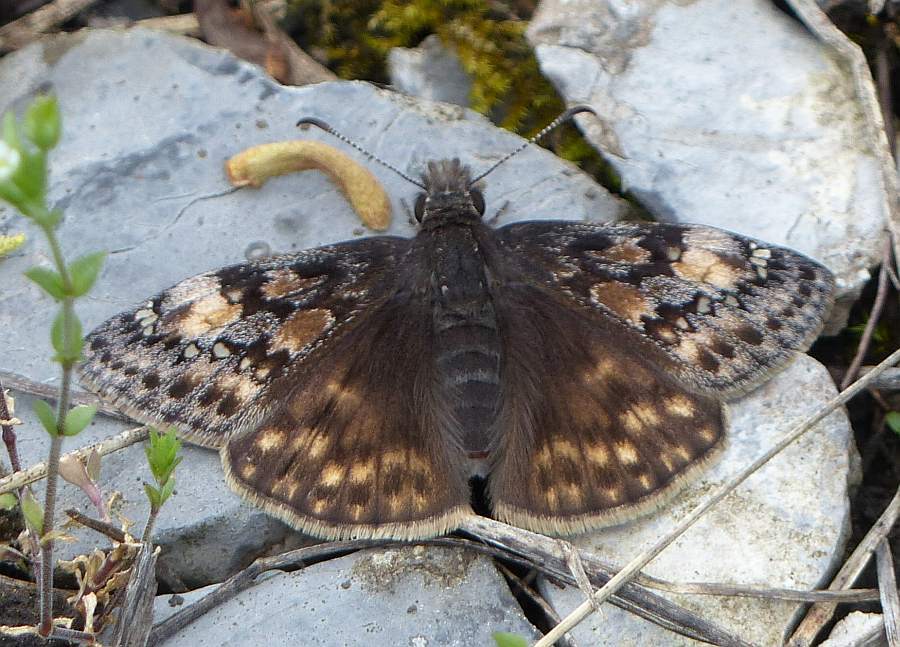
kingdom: Animalia
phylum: Arthropoda
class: Insecta
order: Lepidoptera
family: Hesperiidae
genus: Erynnis
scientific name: Erynnis juvenalis
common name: Juvenal's duskywing
